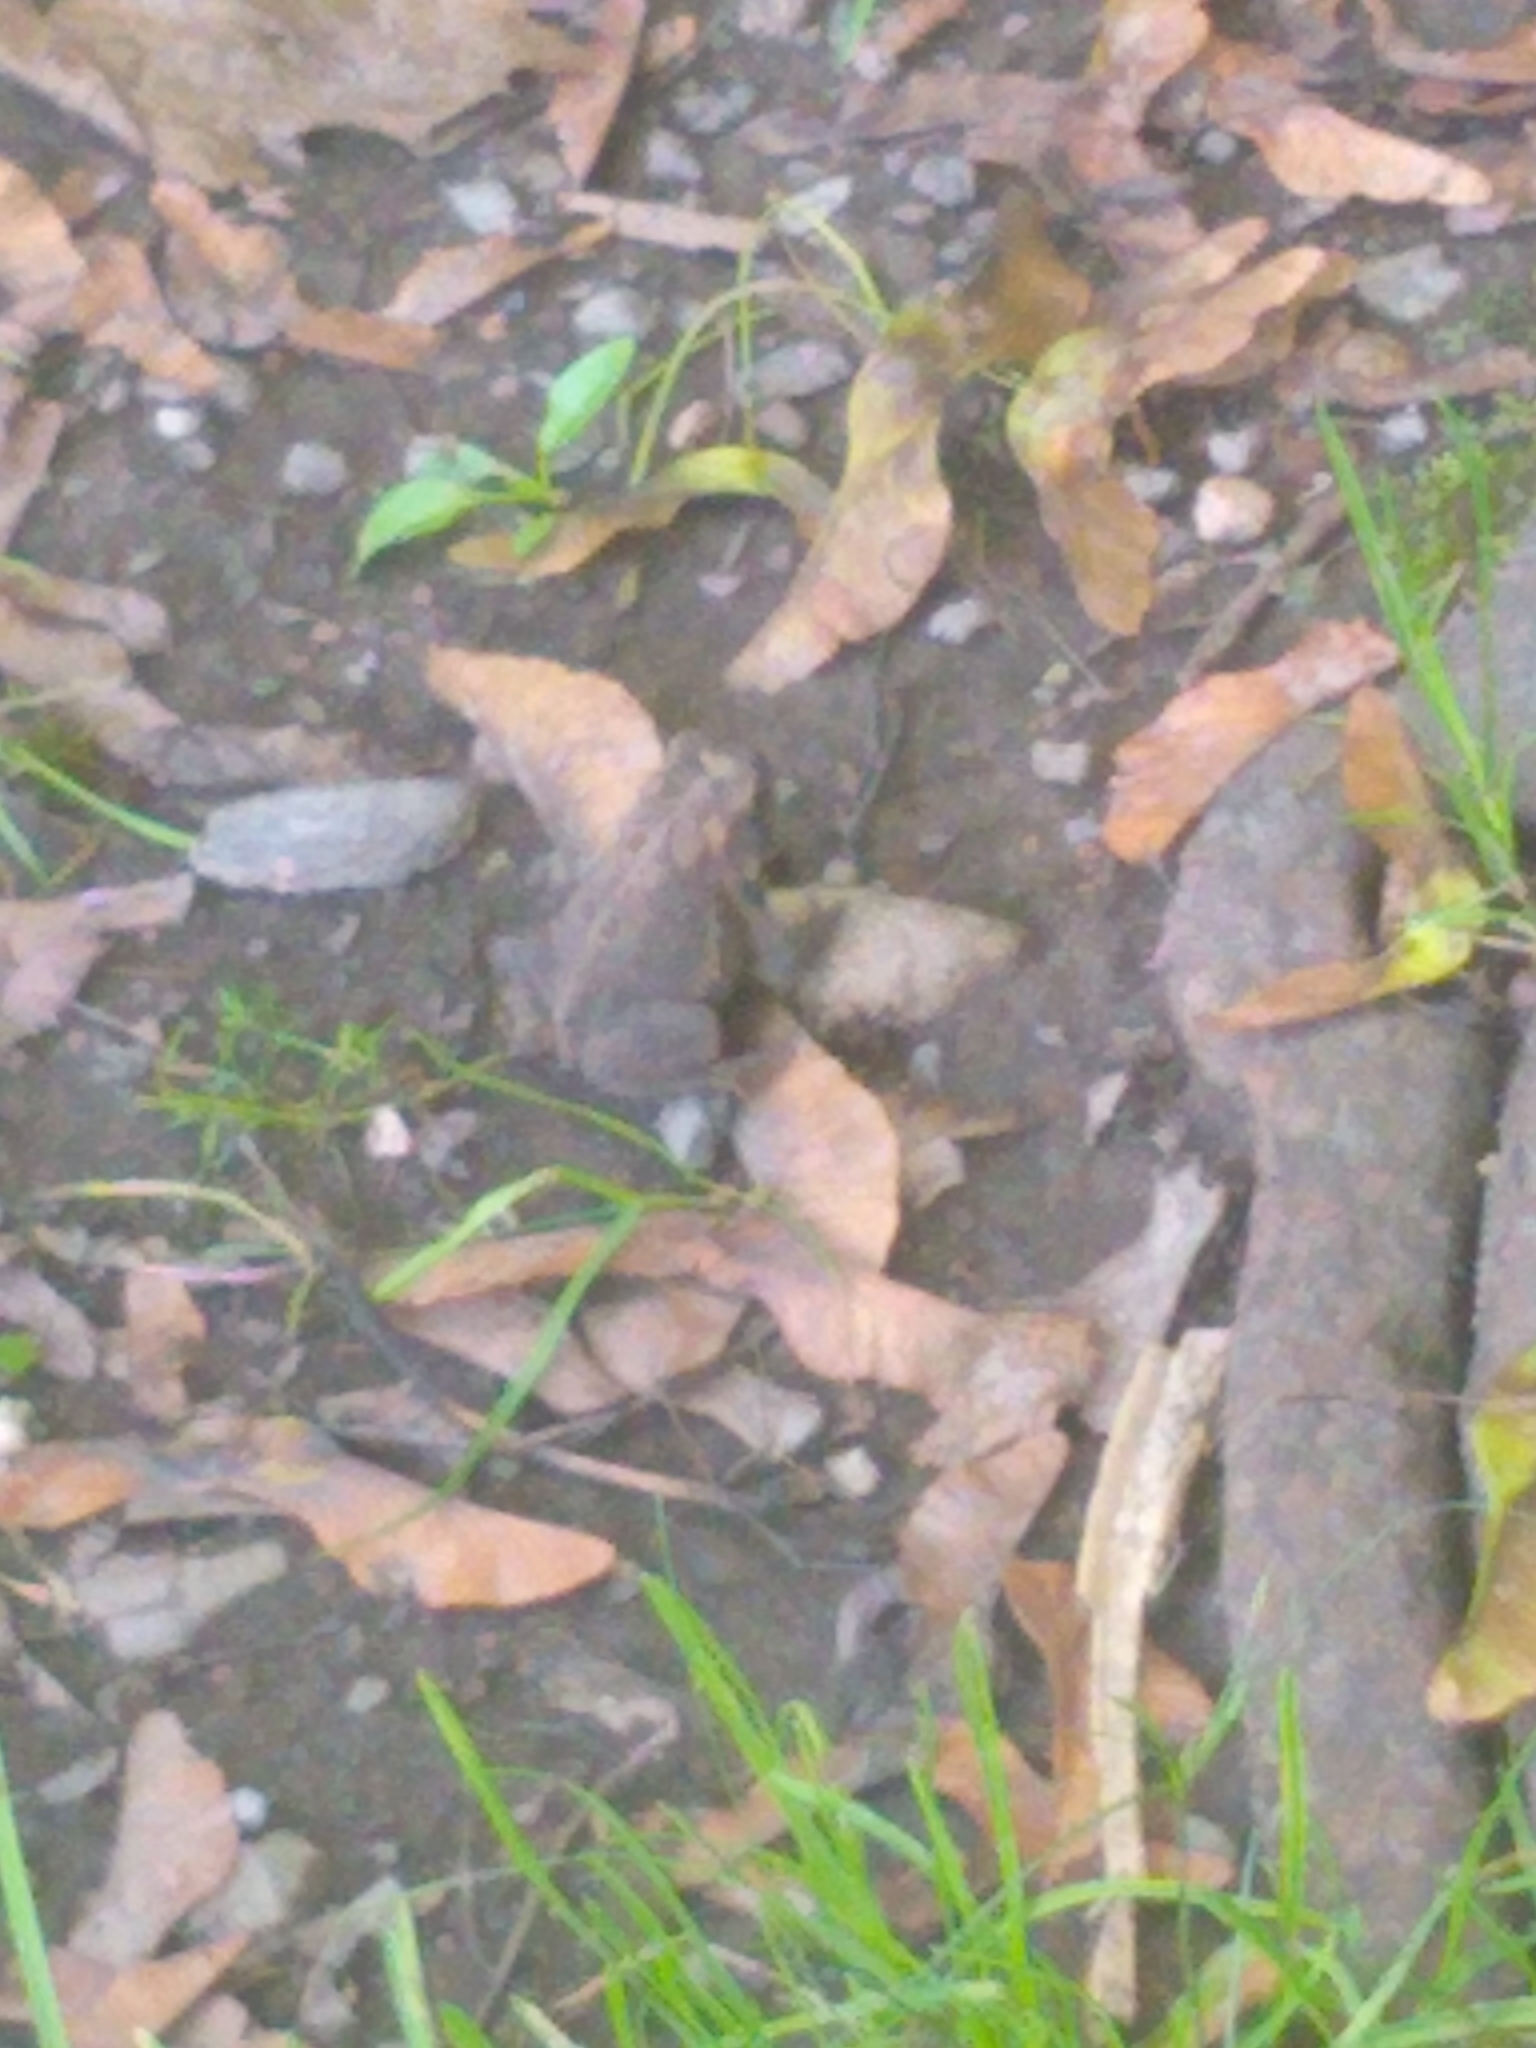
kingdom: Animalia
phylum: Chordata
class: Amphibia
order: Anura
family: Bufonidae
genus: Anaxyrus
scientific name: Anaxyrus americanus
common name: American toad
